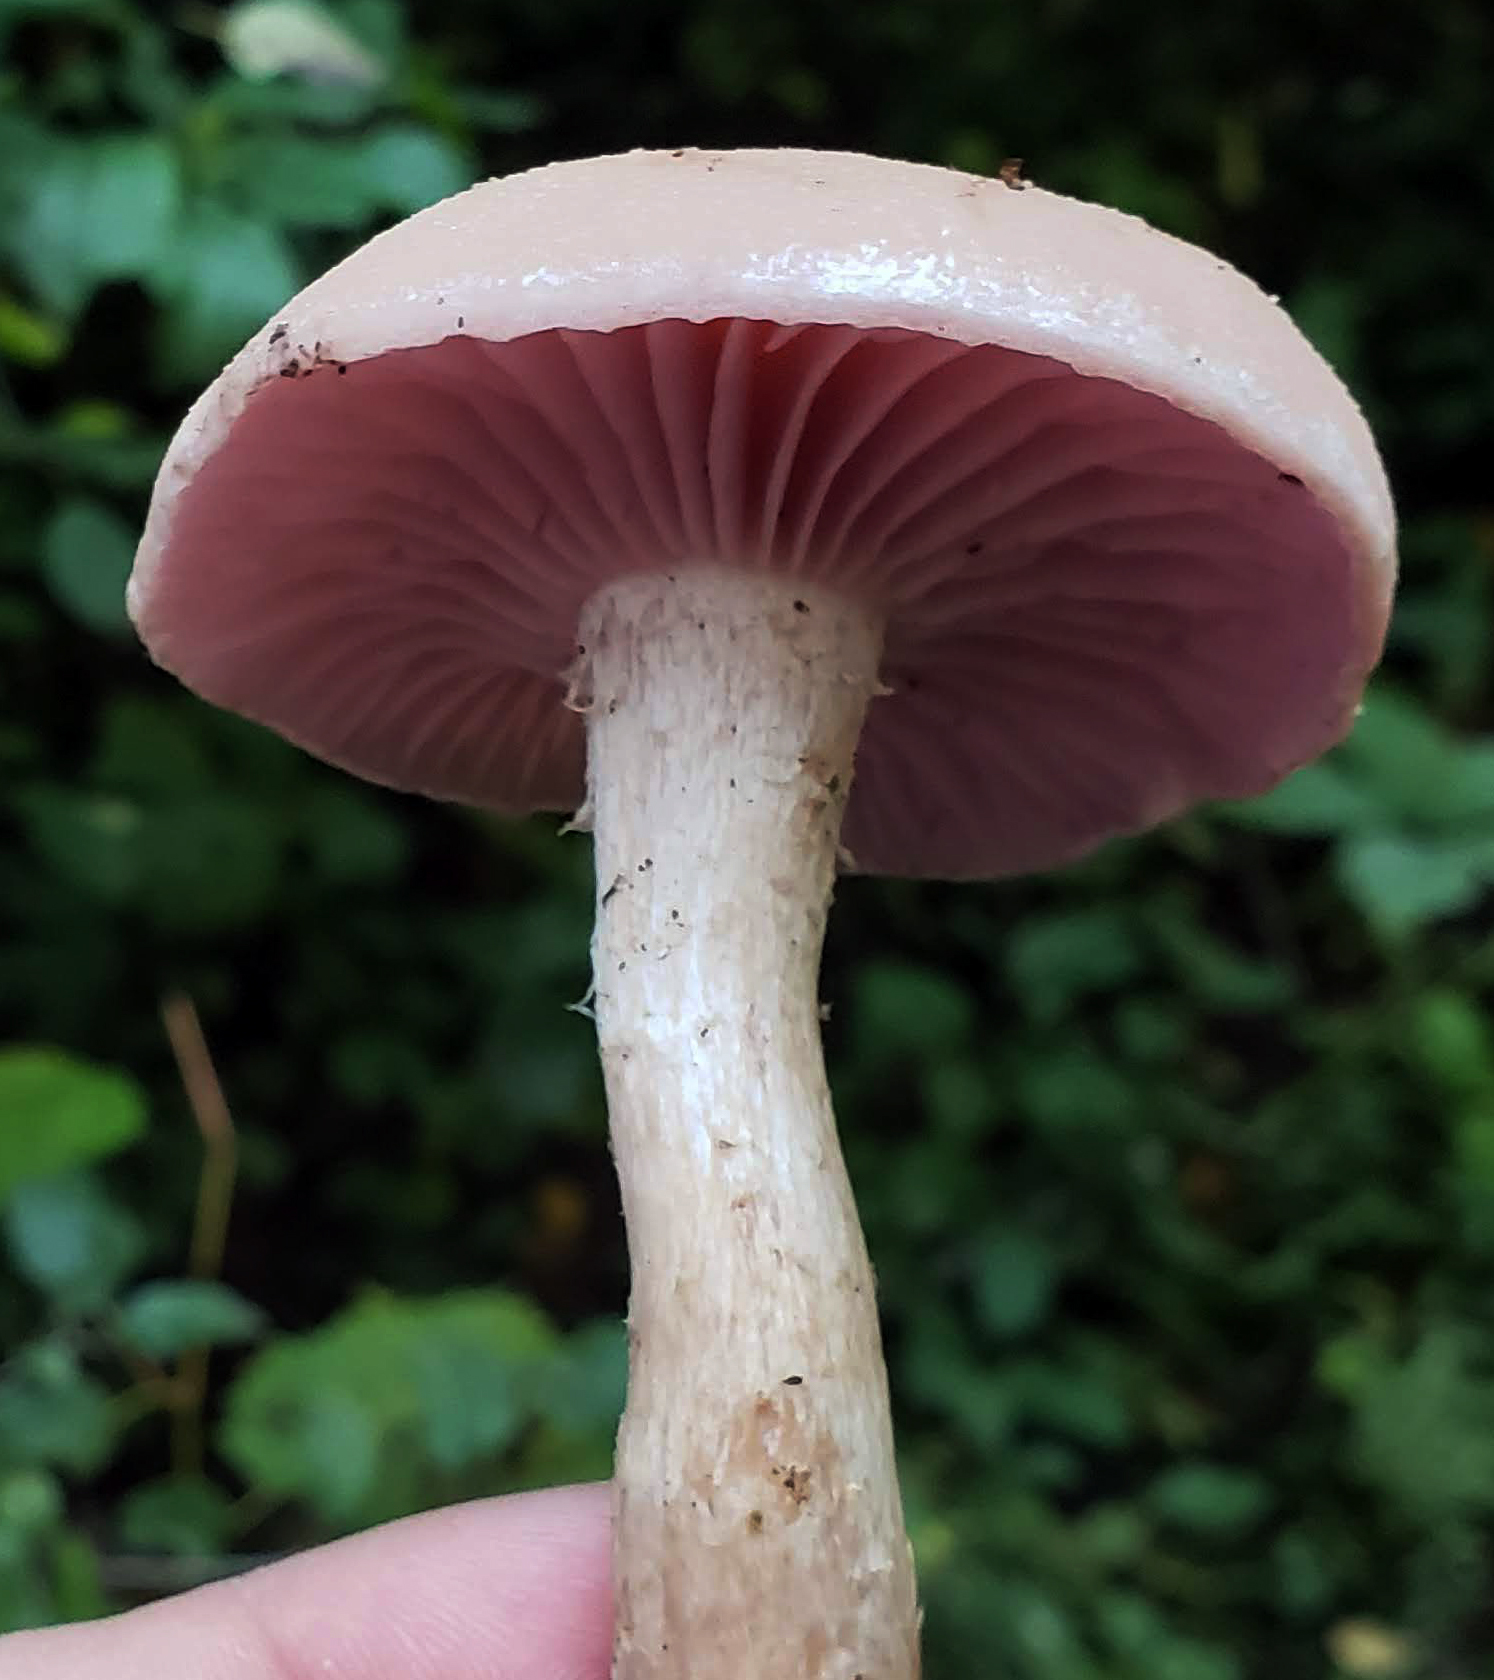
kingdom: Fungi
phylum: Basidiomycota
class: Agaricomycetes
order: Agaricales
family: Hydnangiaceae
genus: Laccaria
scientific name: Laccaria ochropurpurea
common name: Purple laccaria
